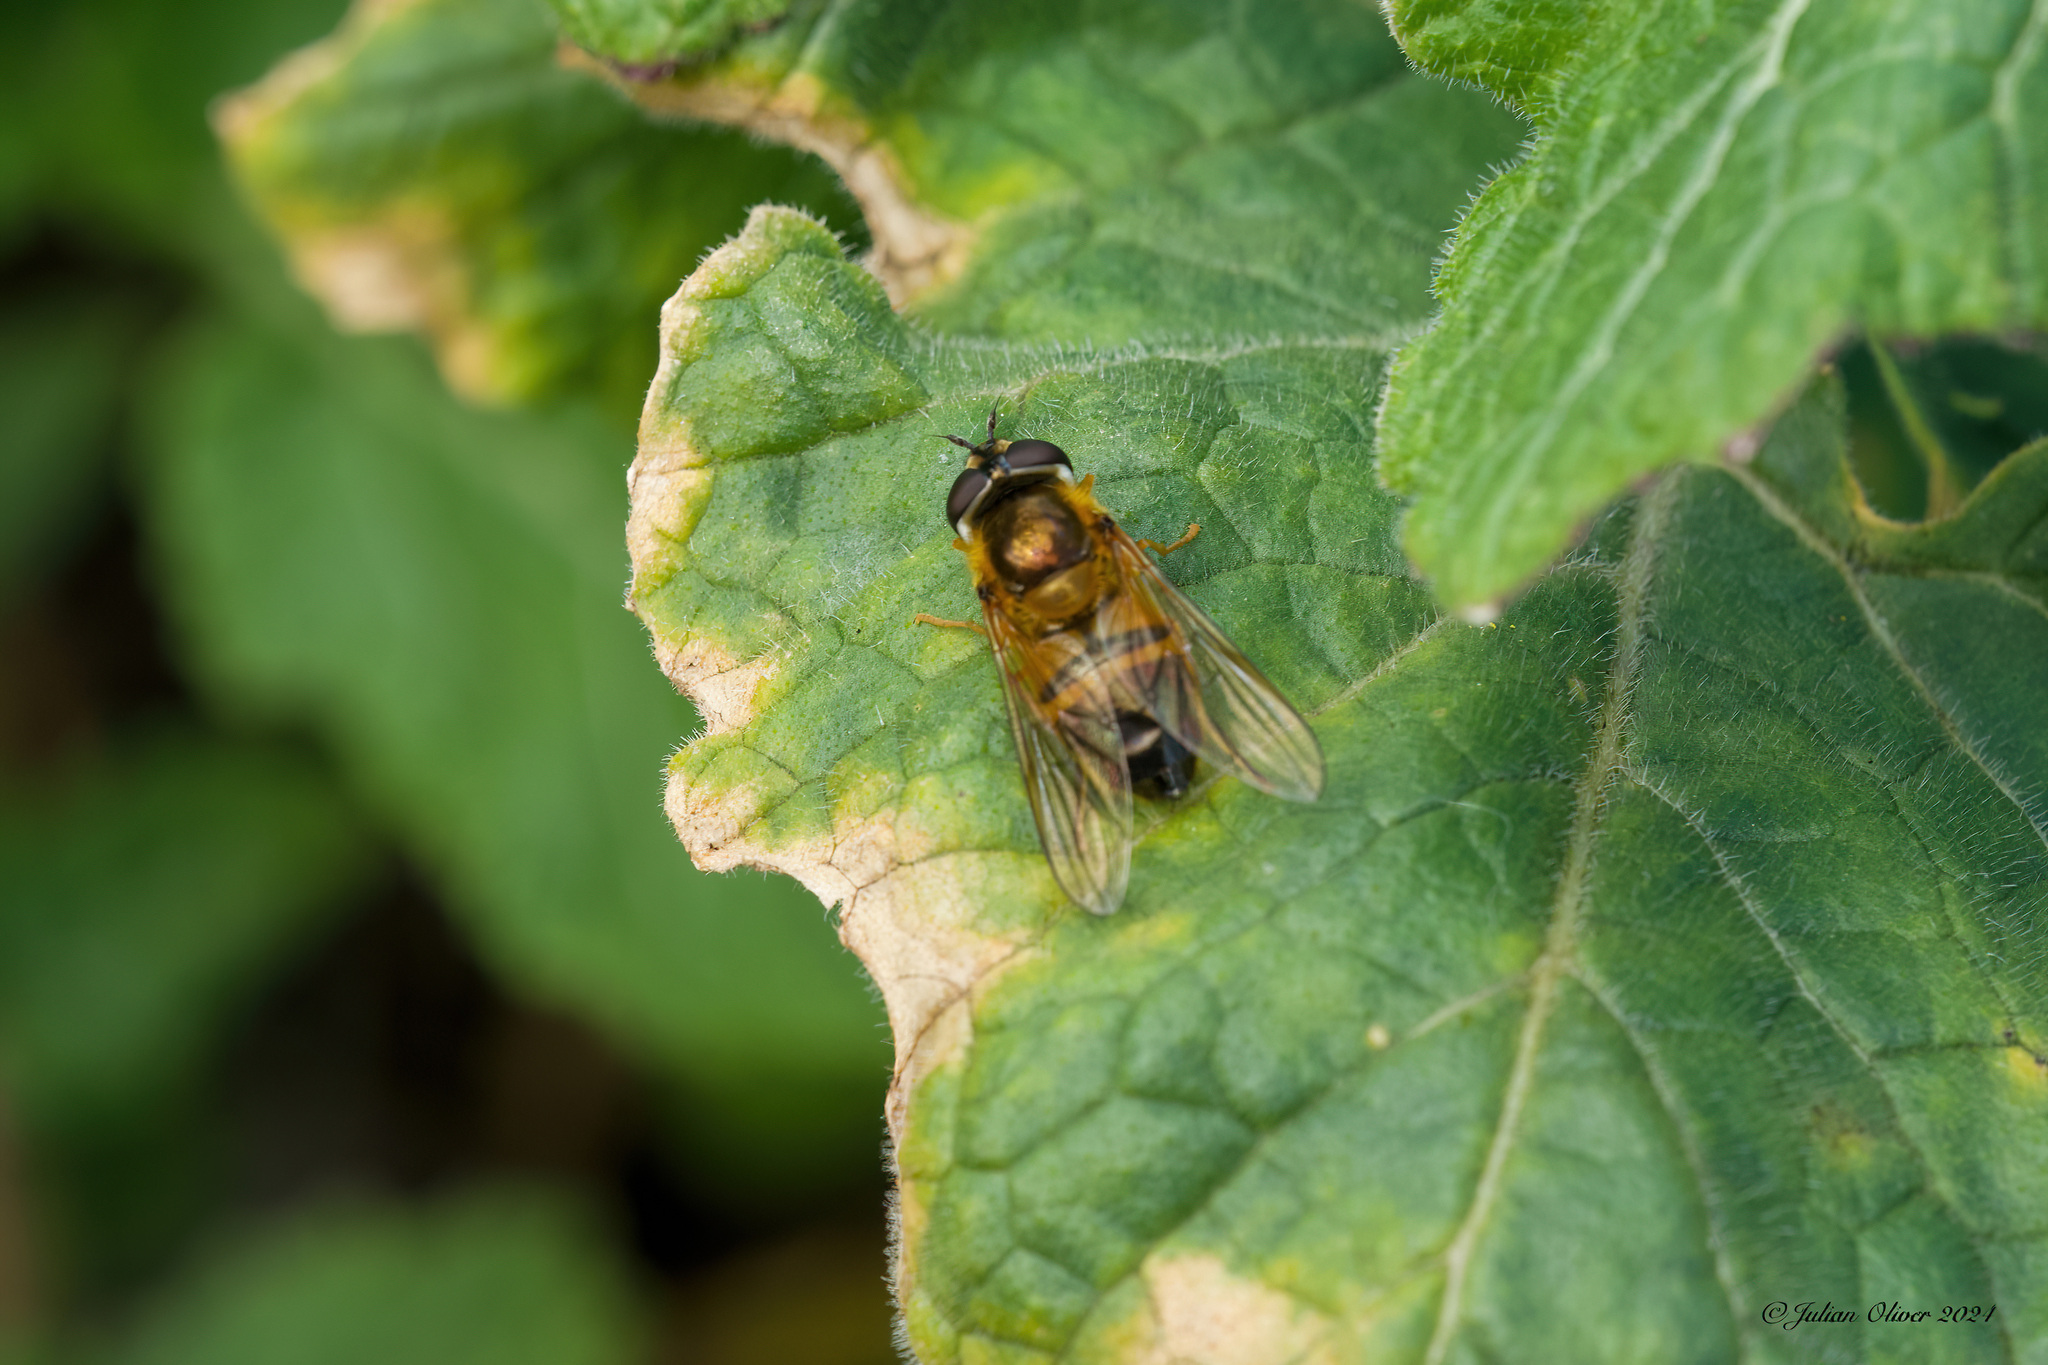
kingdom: Animalia
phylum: Arthropoda
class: Insecta
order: Diptera
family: Syrphidae
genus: Epistrophe
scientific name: Epistrophe eligans
